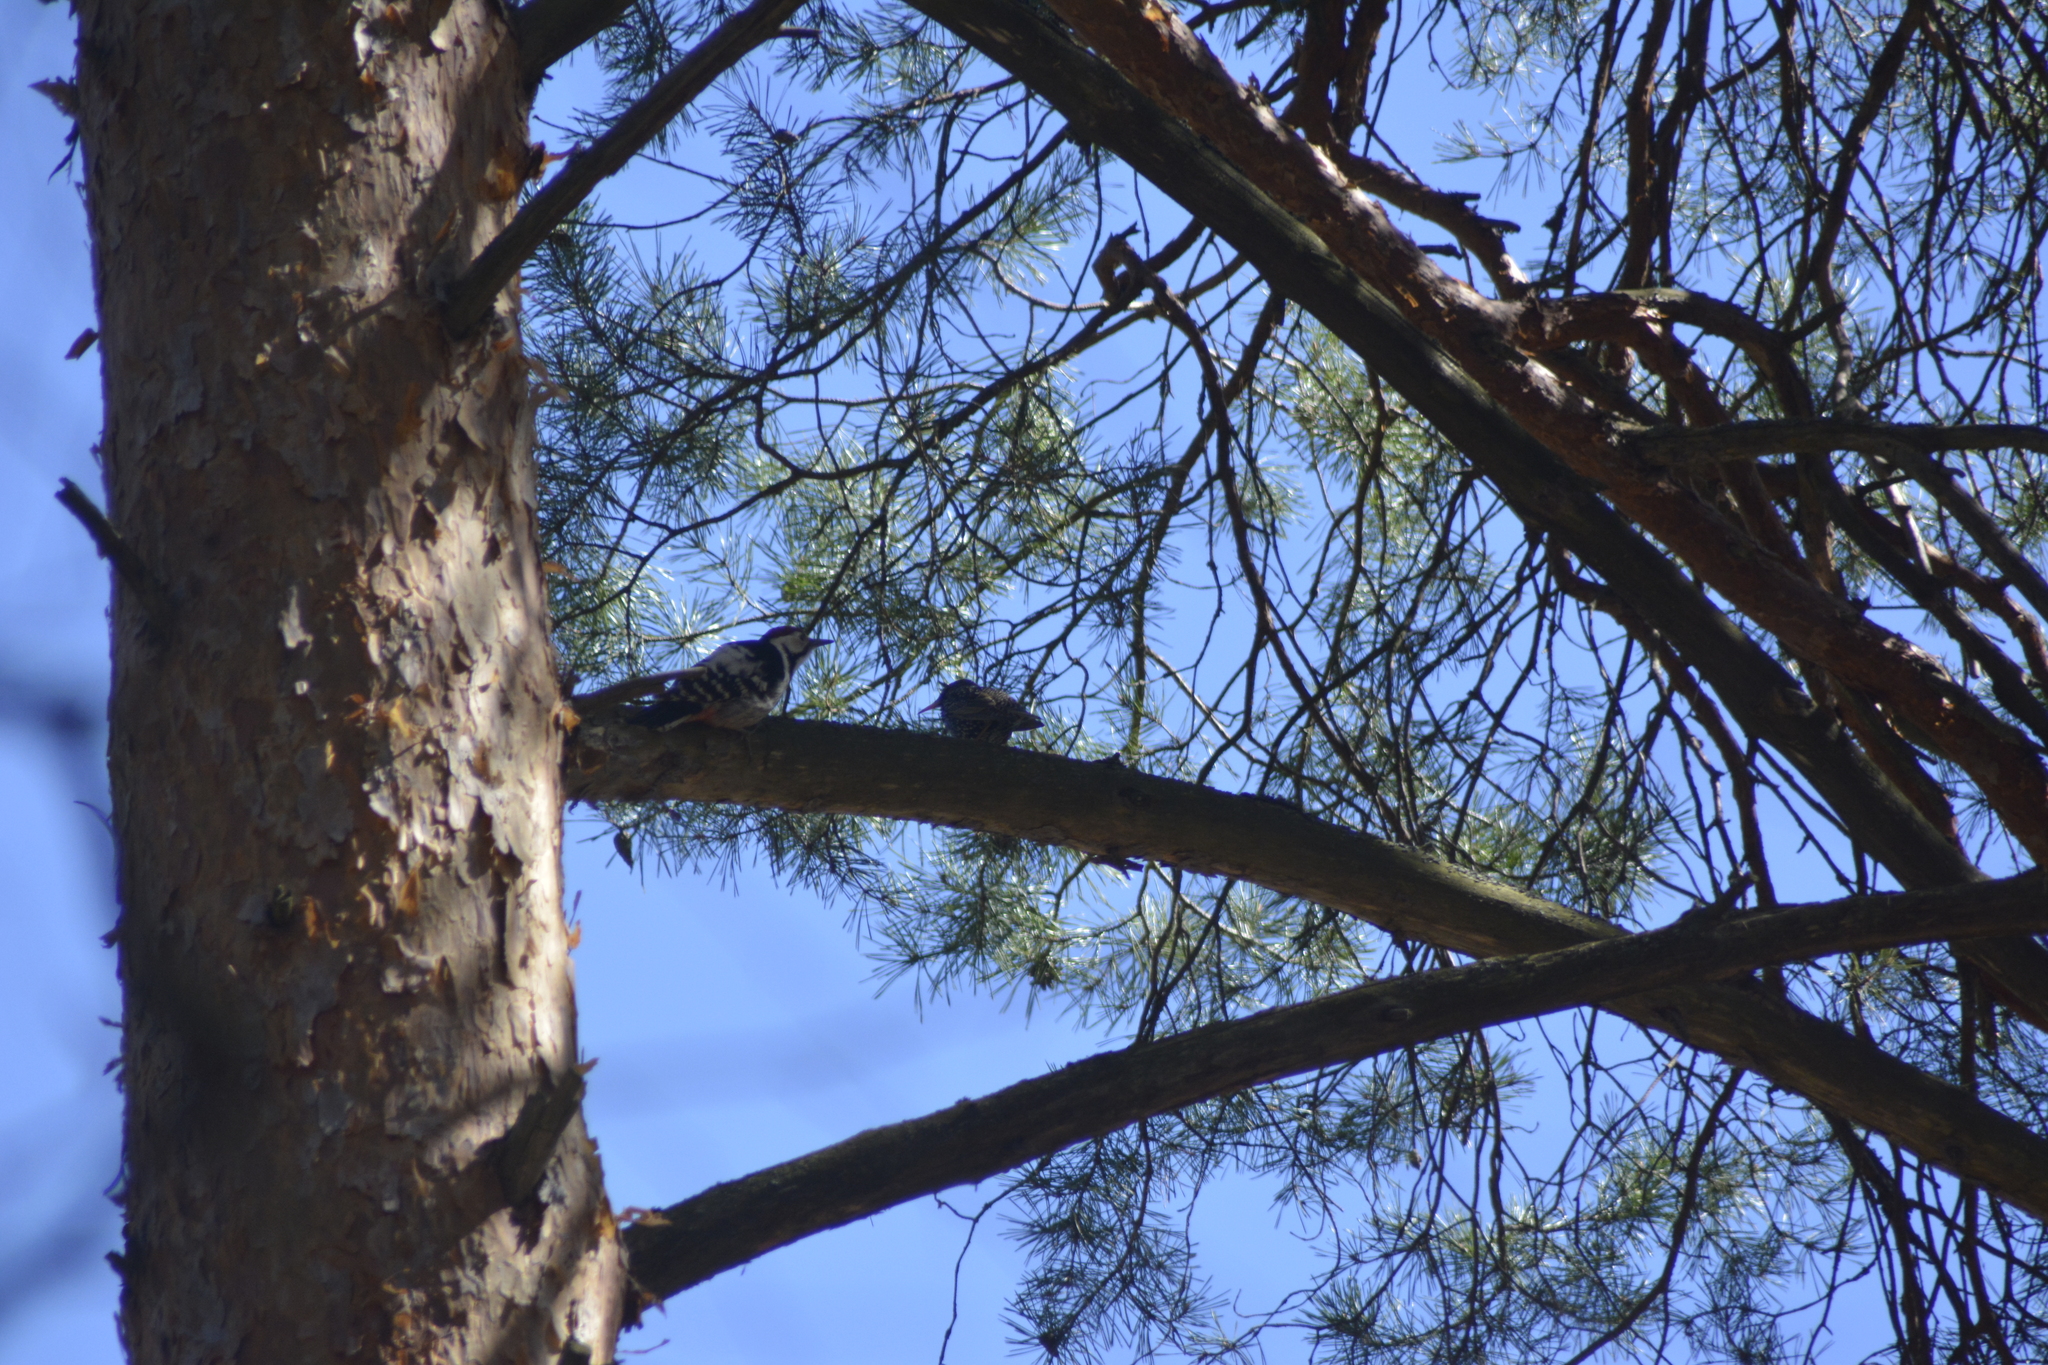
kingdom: Animalia
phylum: Chordata
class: Aves
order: Passeriformes
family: Sturnidae
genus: Sturnus
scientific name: Sturnus vulgaris
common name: Common starling
